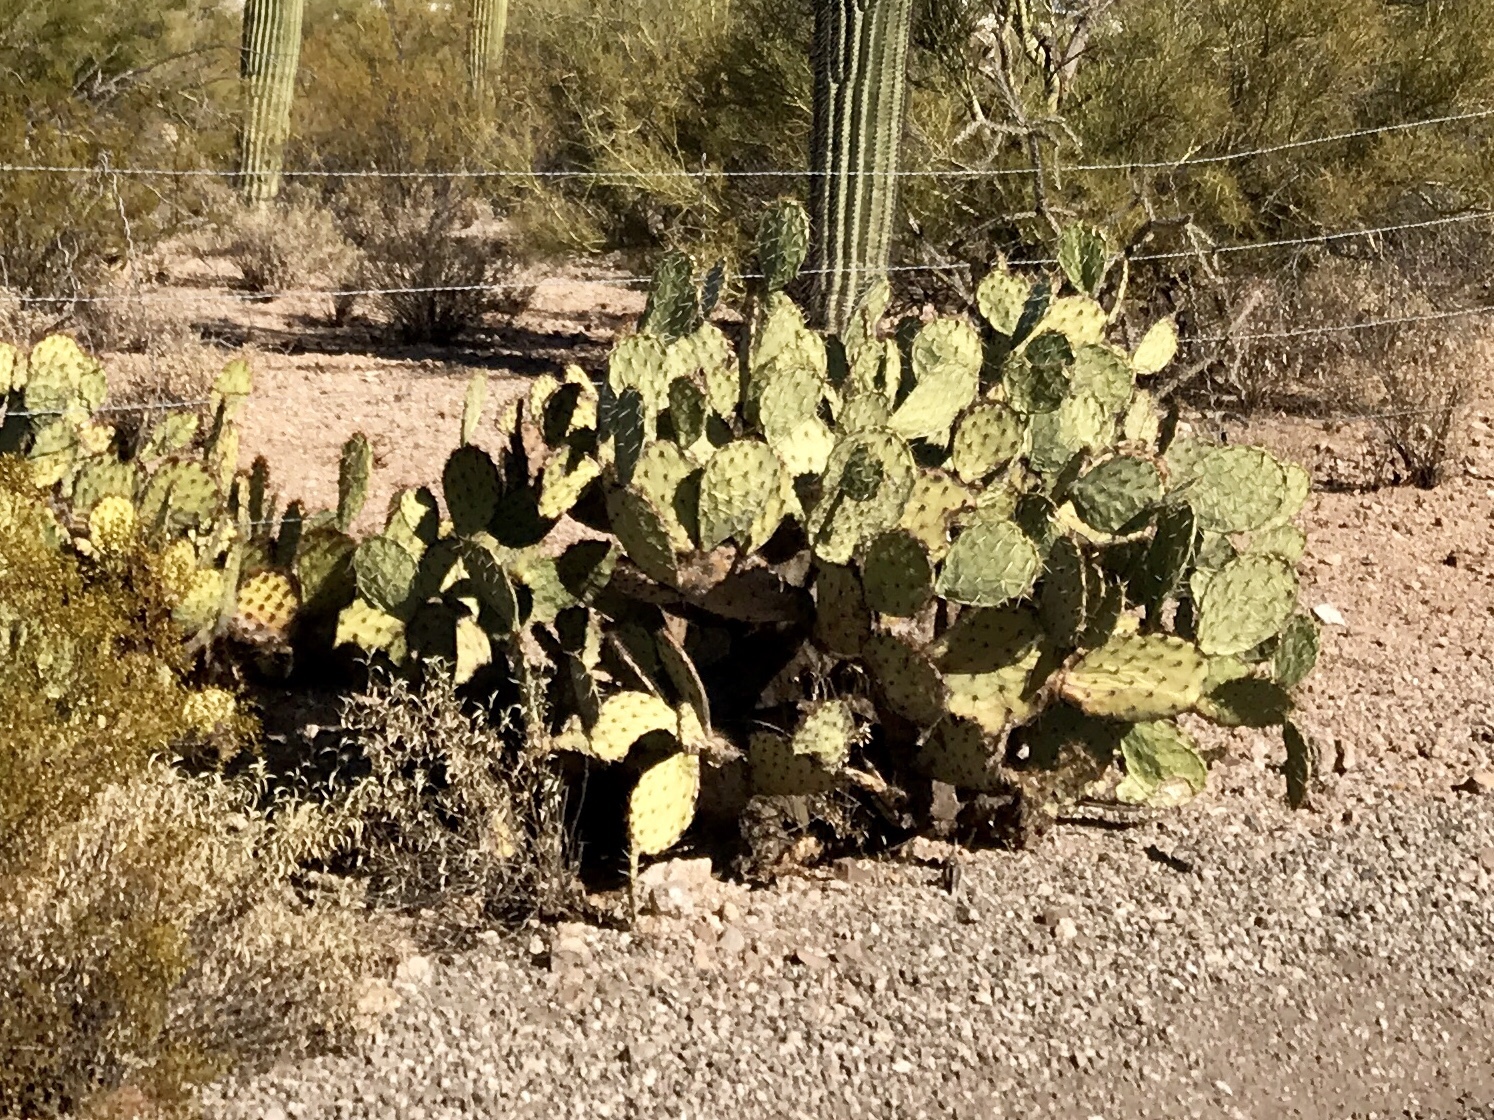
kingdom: Plantae
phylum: Tracheophyta
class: Magnoliopsida
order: Caryophyllales
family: Cactaceae
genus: Opuntia
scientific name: Opuntia engelmannii
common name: Cactus-apple
